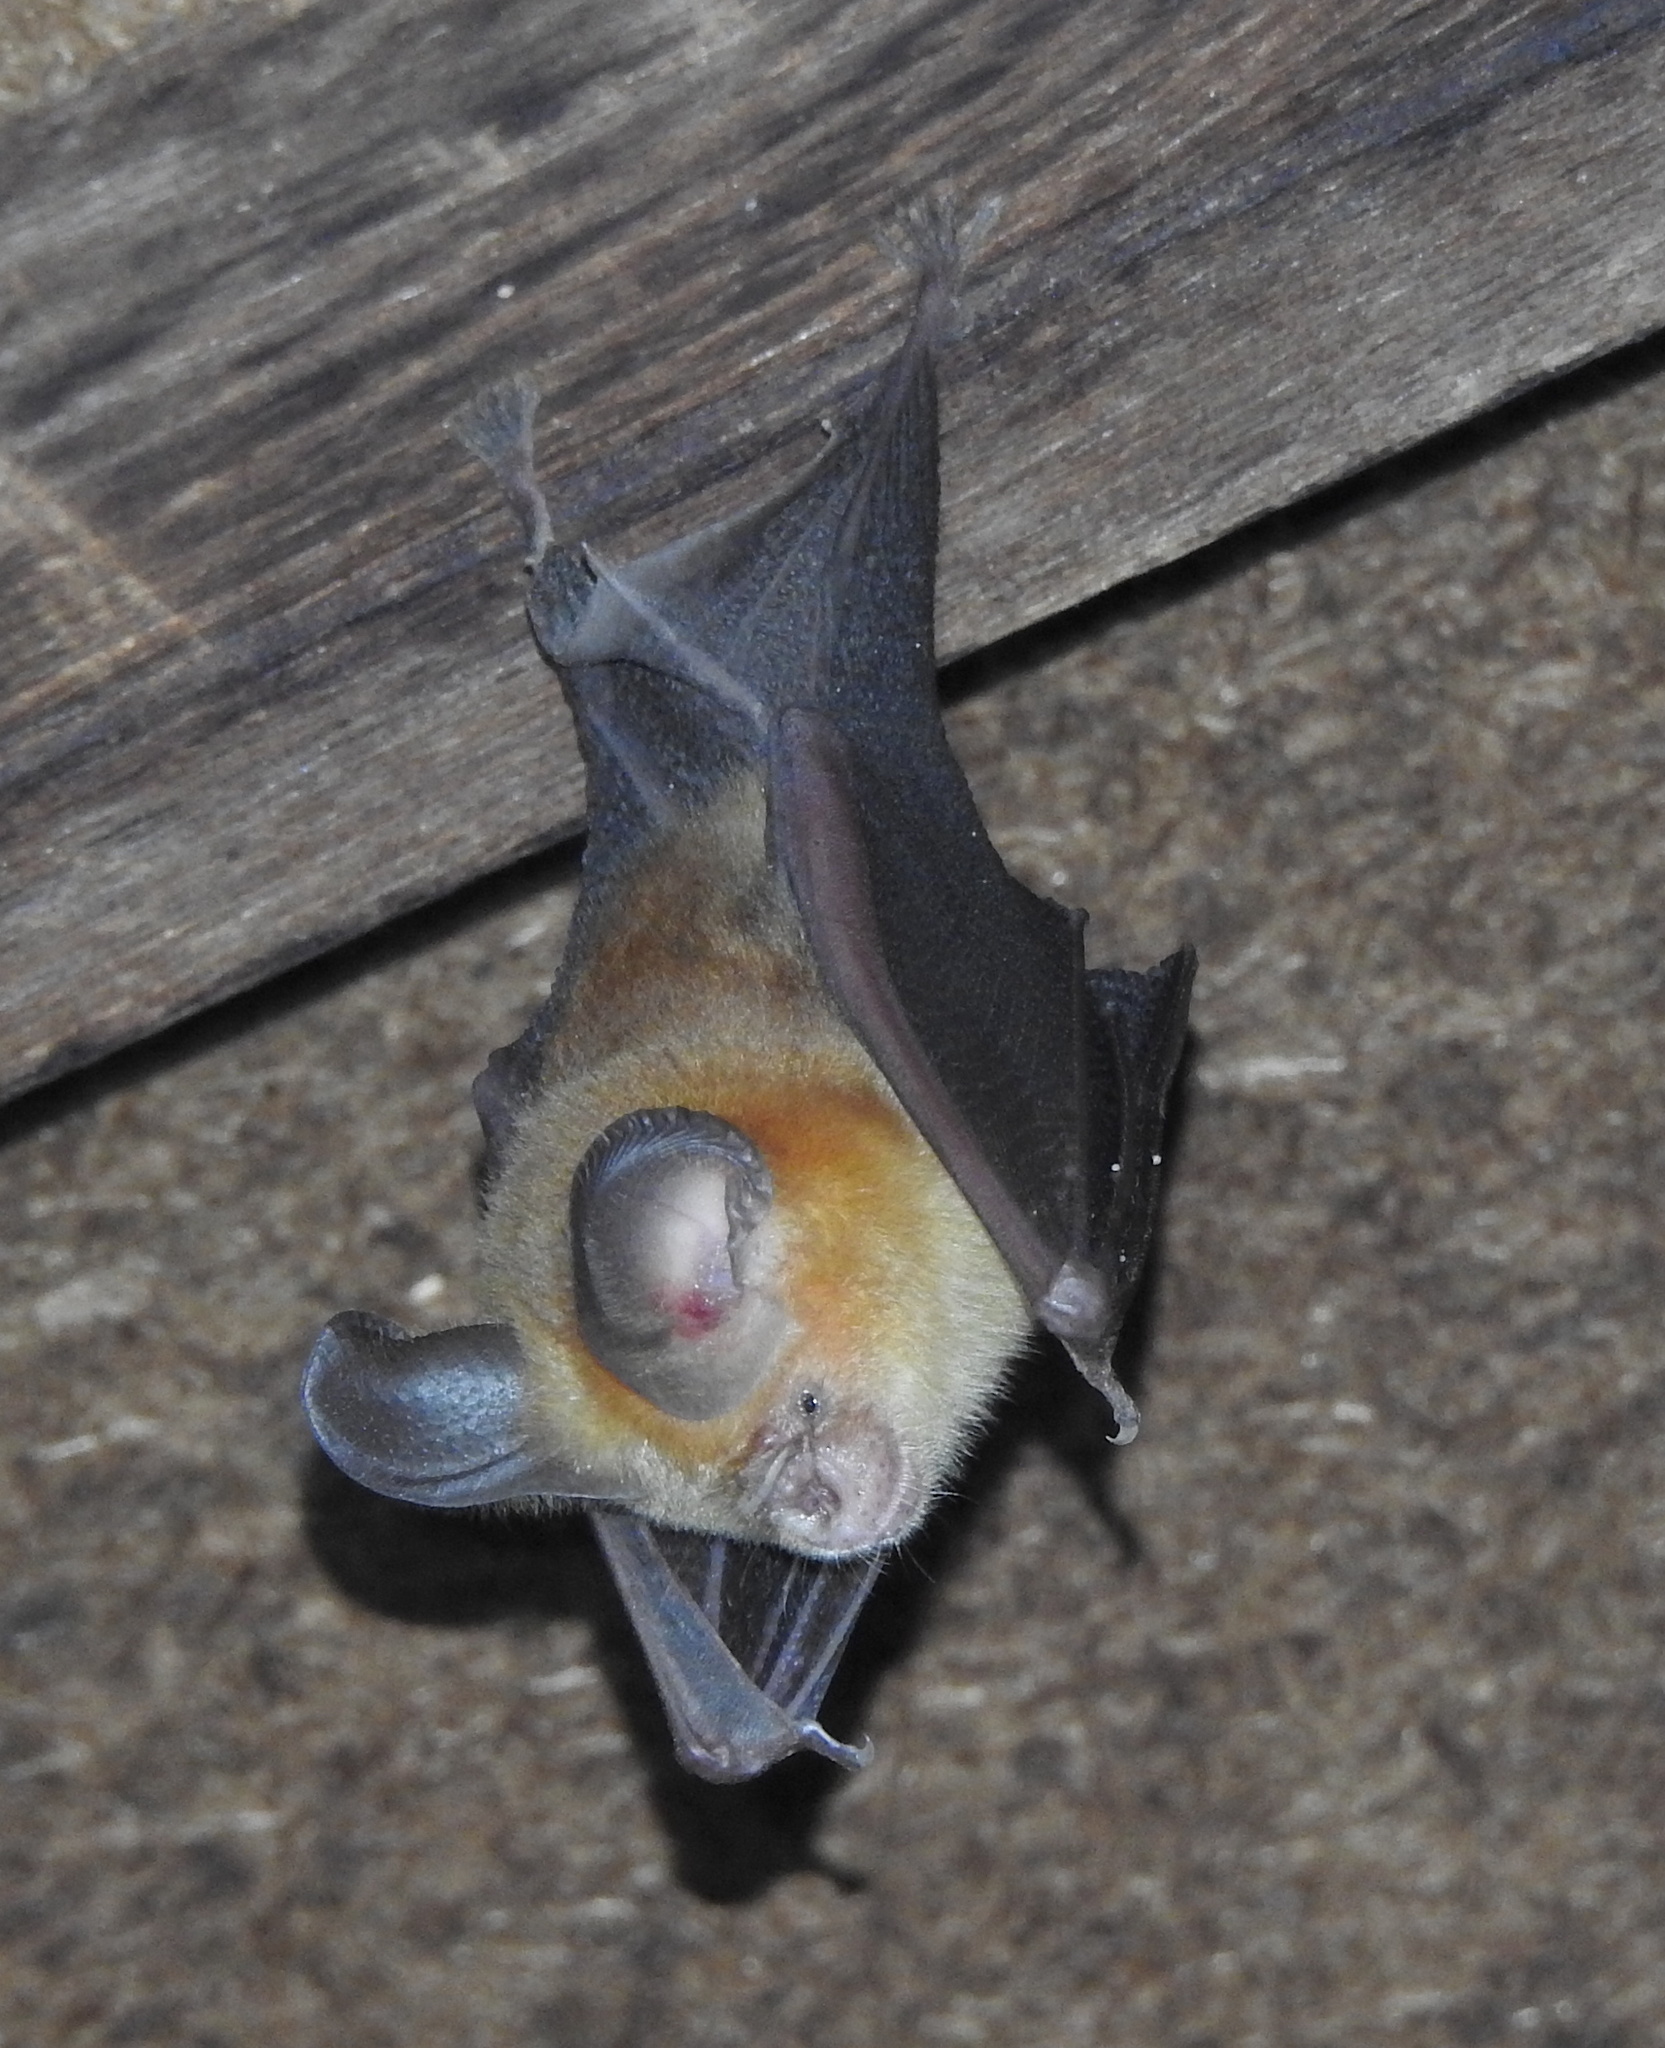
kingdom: Animalia
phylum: Chordata
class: Mammalia
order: Chiroptera
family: Hipposideridae
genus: Hipposideros
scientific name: Hipposideros fulvus
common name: Fulvus leaf-nosed bat
